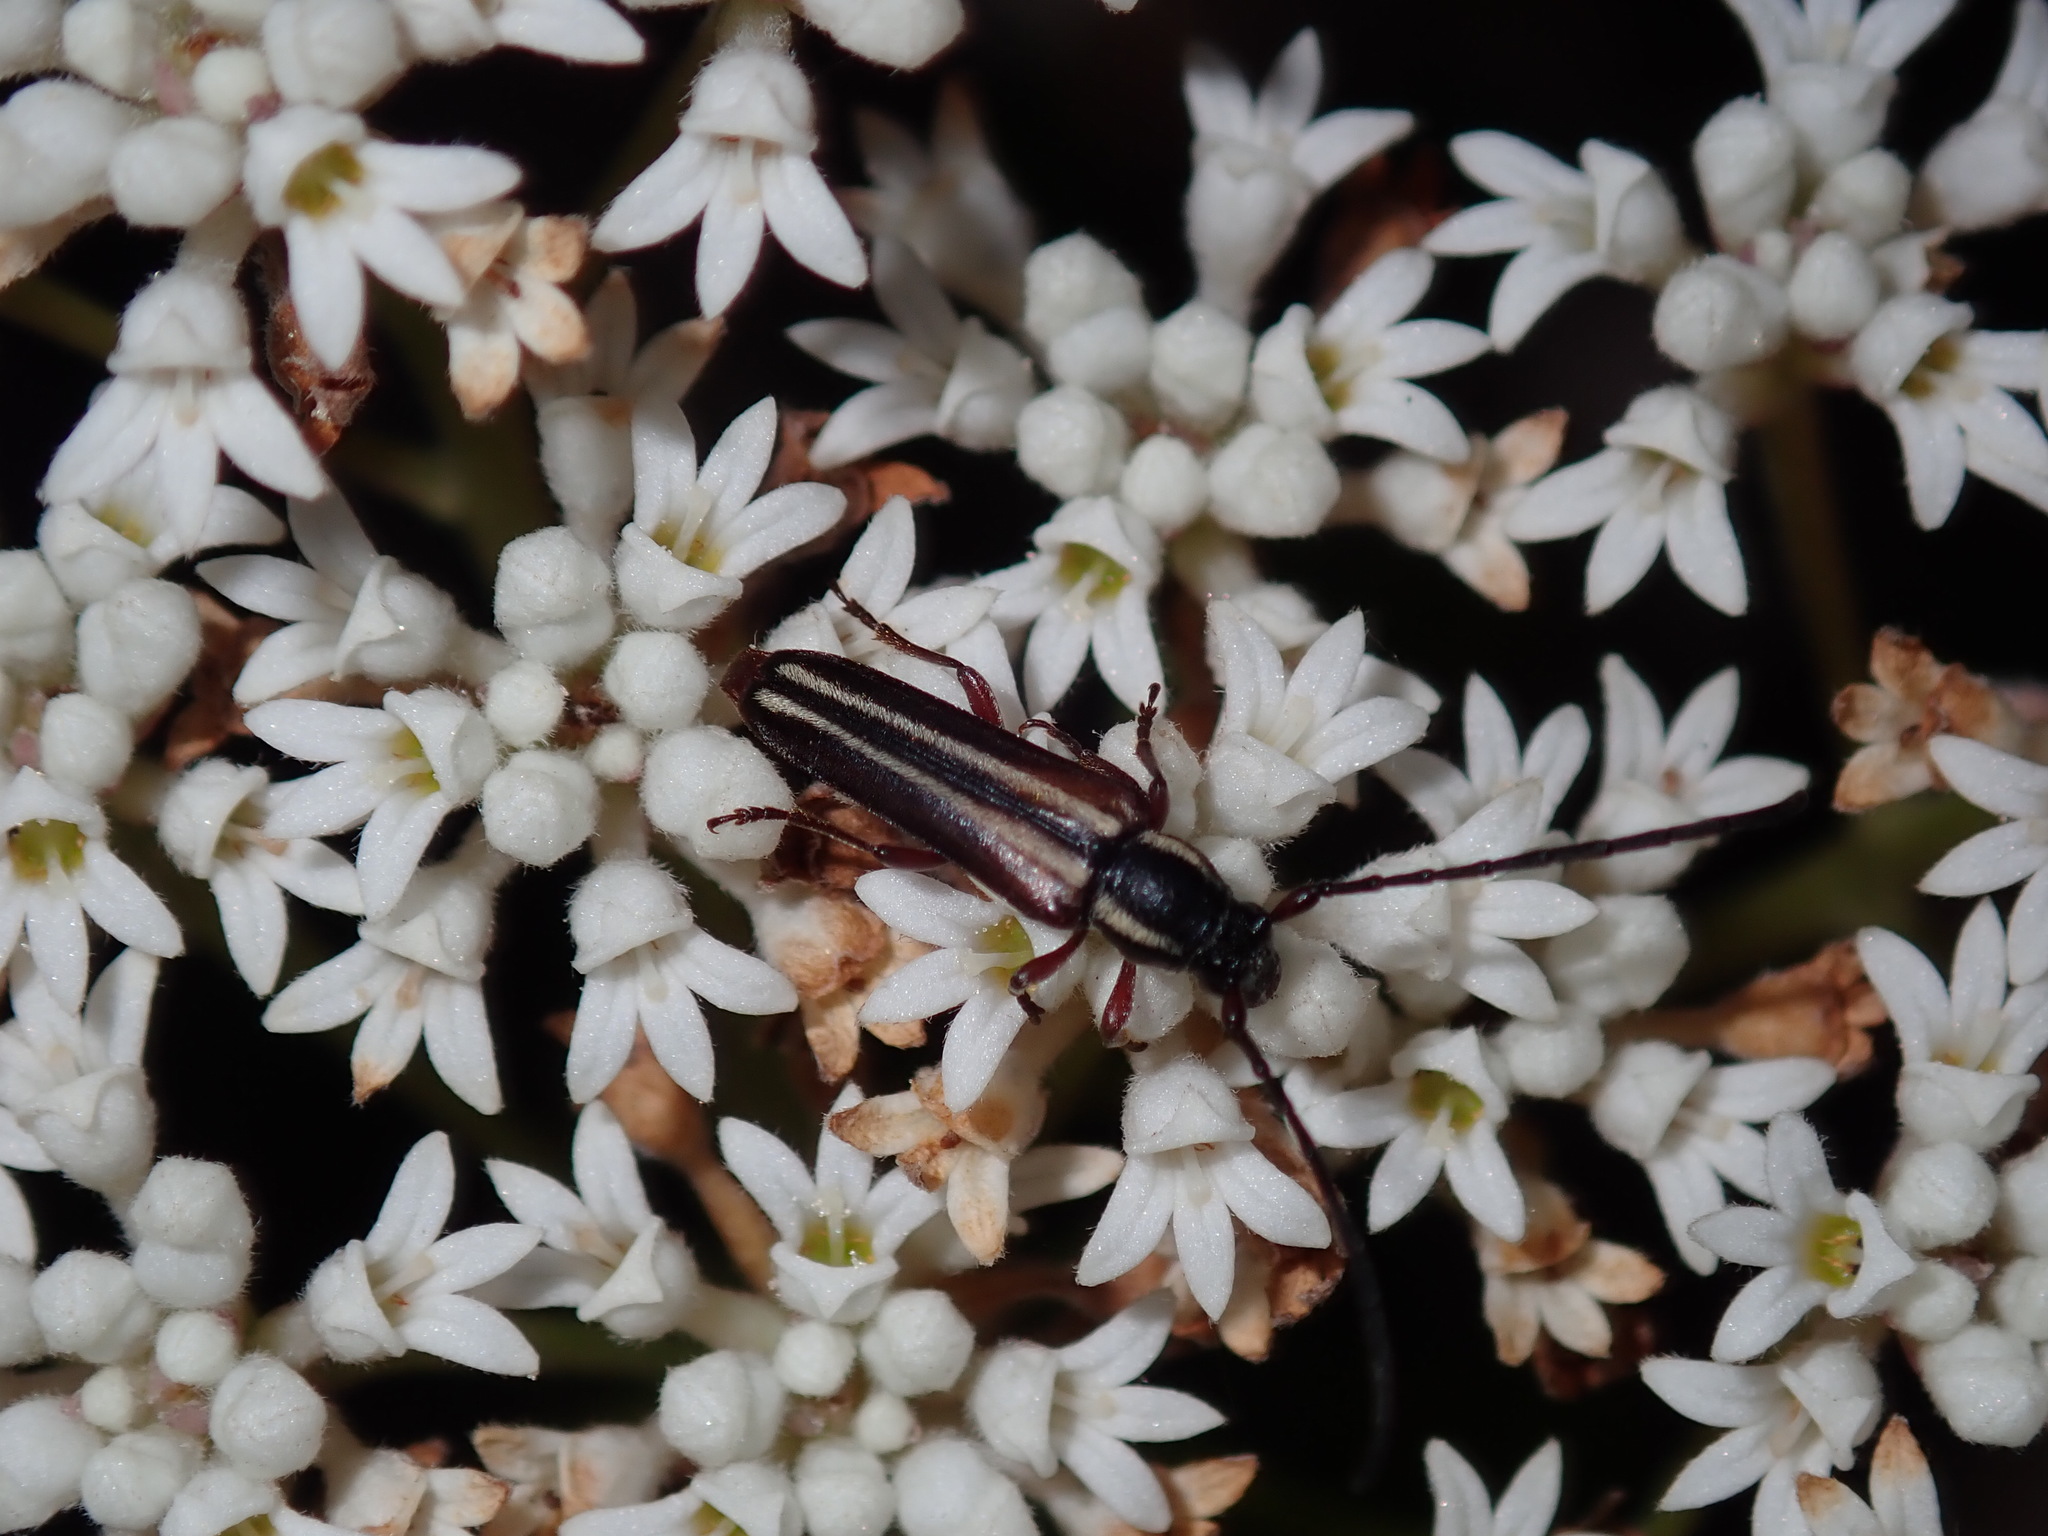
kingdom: Animalia
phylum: Arthropoda
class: Insecta
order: Coleoptera
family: Cerambycidae
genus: Trichomesia
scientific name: Trichomesia newmani
